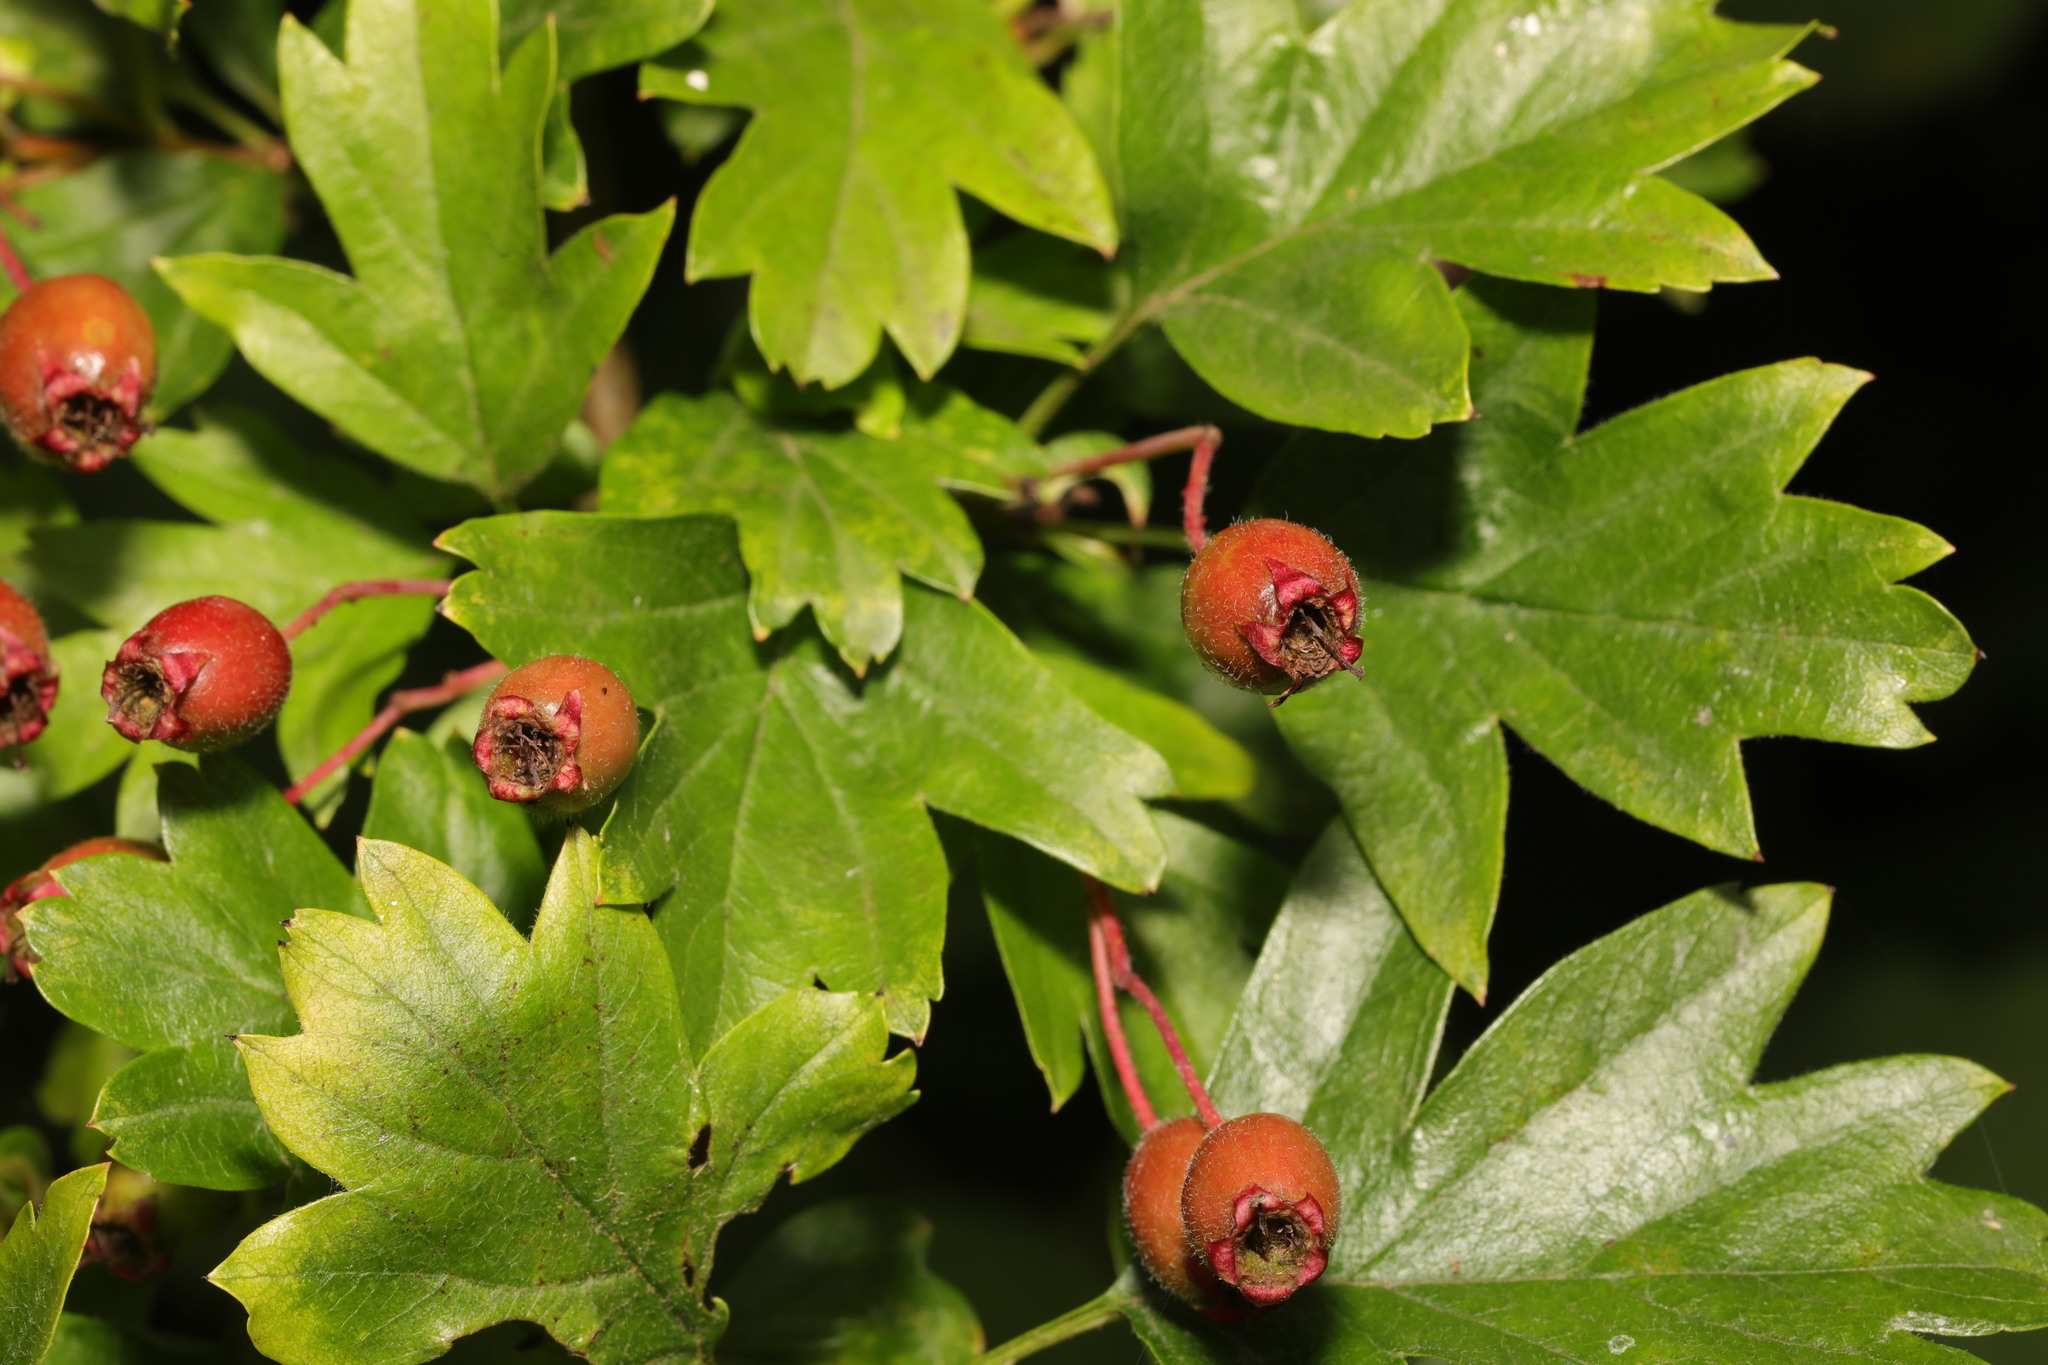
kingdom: Plantae
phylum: Tracheophyta
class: Magnoliopsida
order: Rosales
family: Rosaceae
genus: Crataegus
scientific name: Crataegus monogyna
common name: Hawthorn
